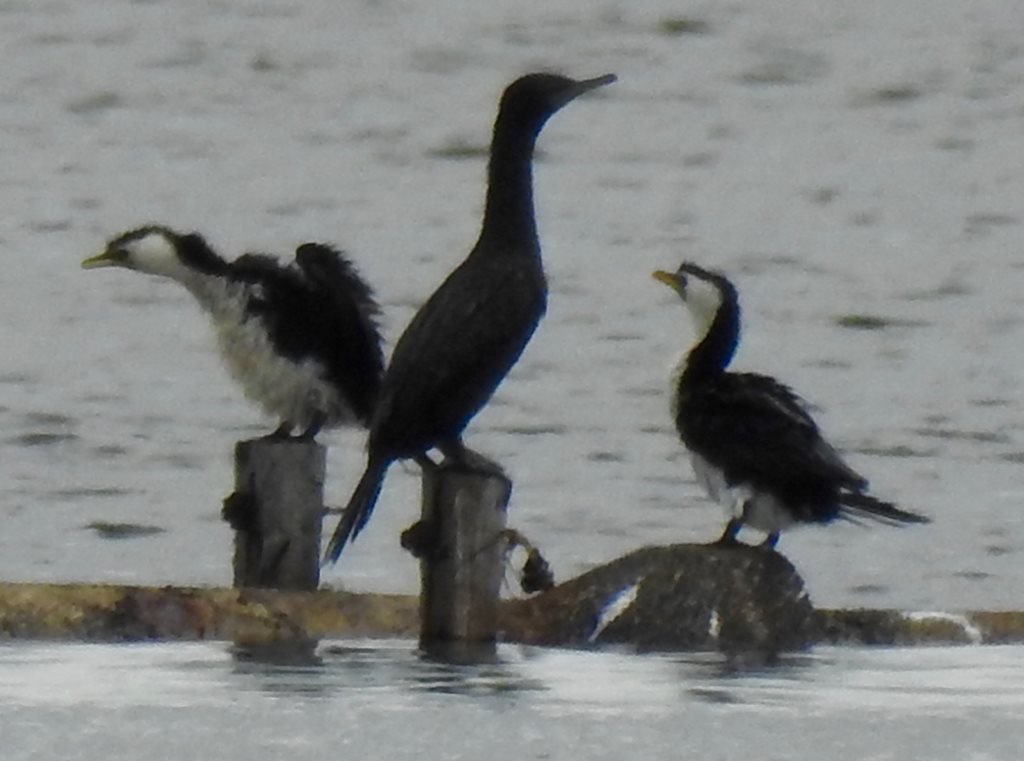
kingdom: Animalia
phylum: Chordata
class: Aves
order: Suliformes
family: Phalacrocoracidae
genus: Phalacrocorax
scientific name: Phalacrocorax sulcirostris
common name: Little black cormorant
